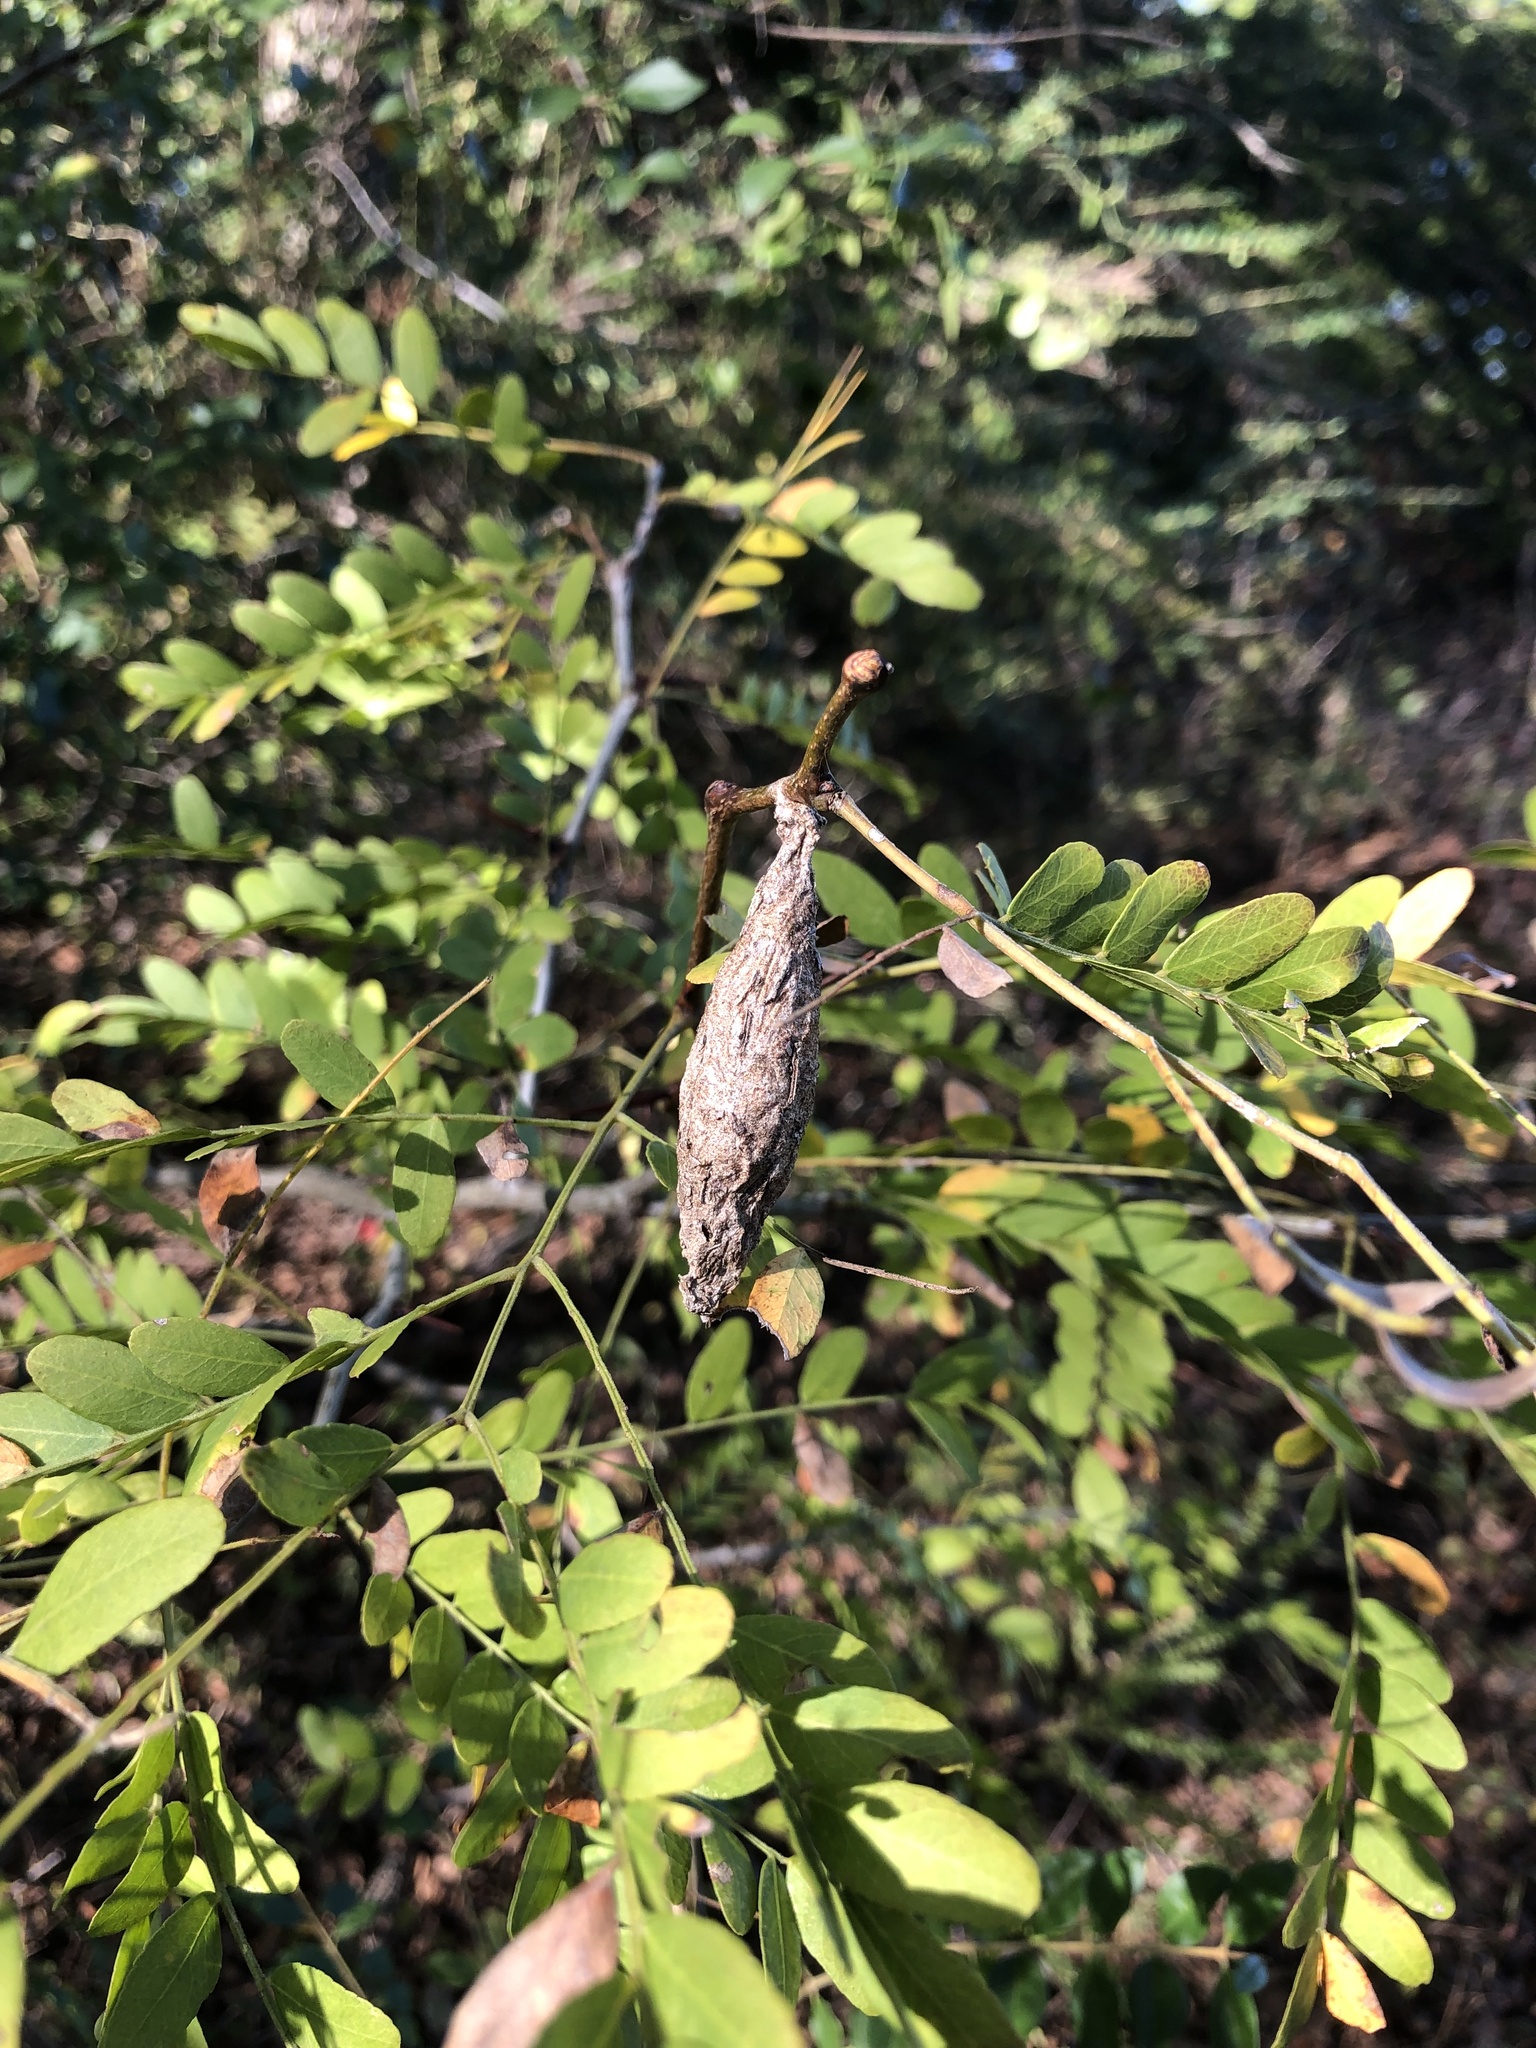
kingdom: Animalia
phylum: Arthropoda
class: Insecta
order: Lepidoptera
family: Psychidae
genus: Thyridopteryx
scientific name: Thyridopteryx ephemeraeformis
